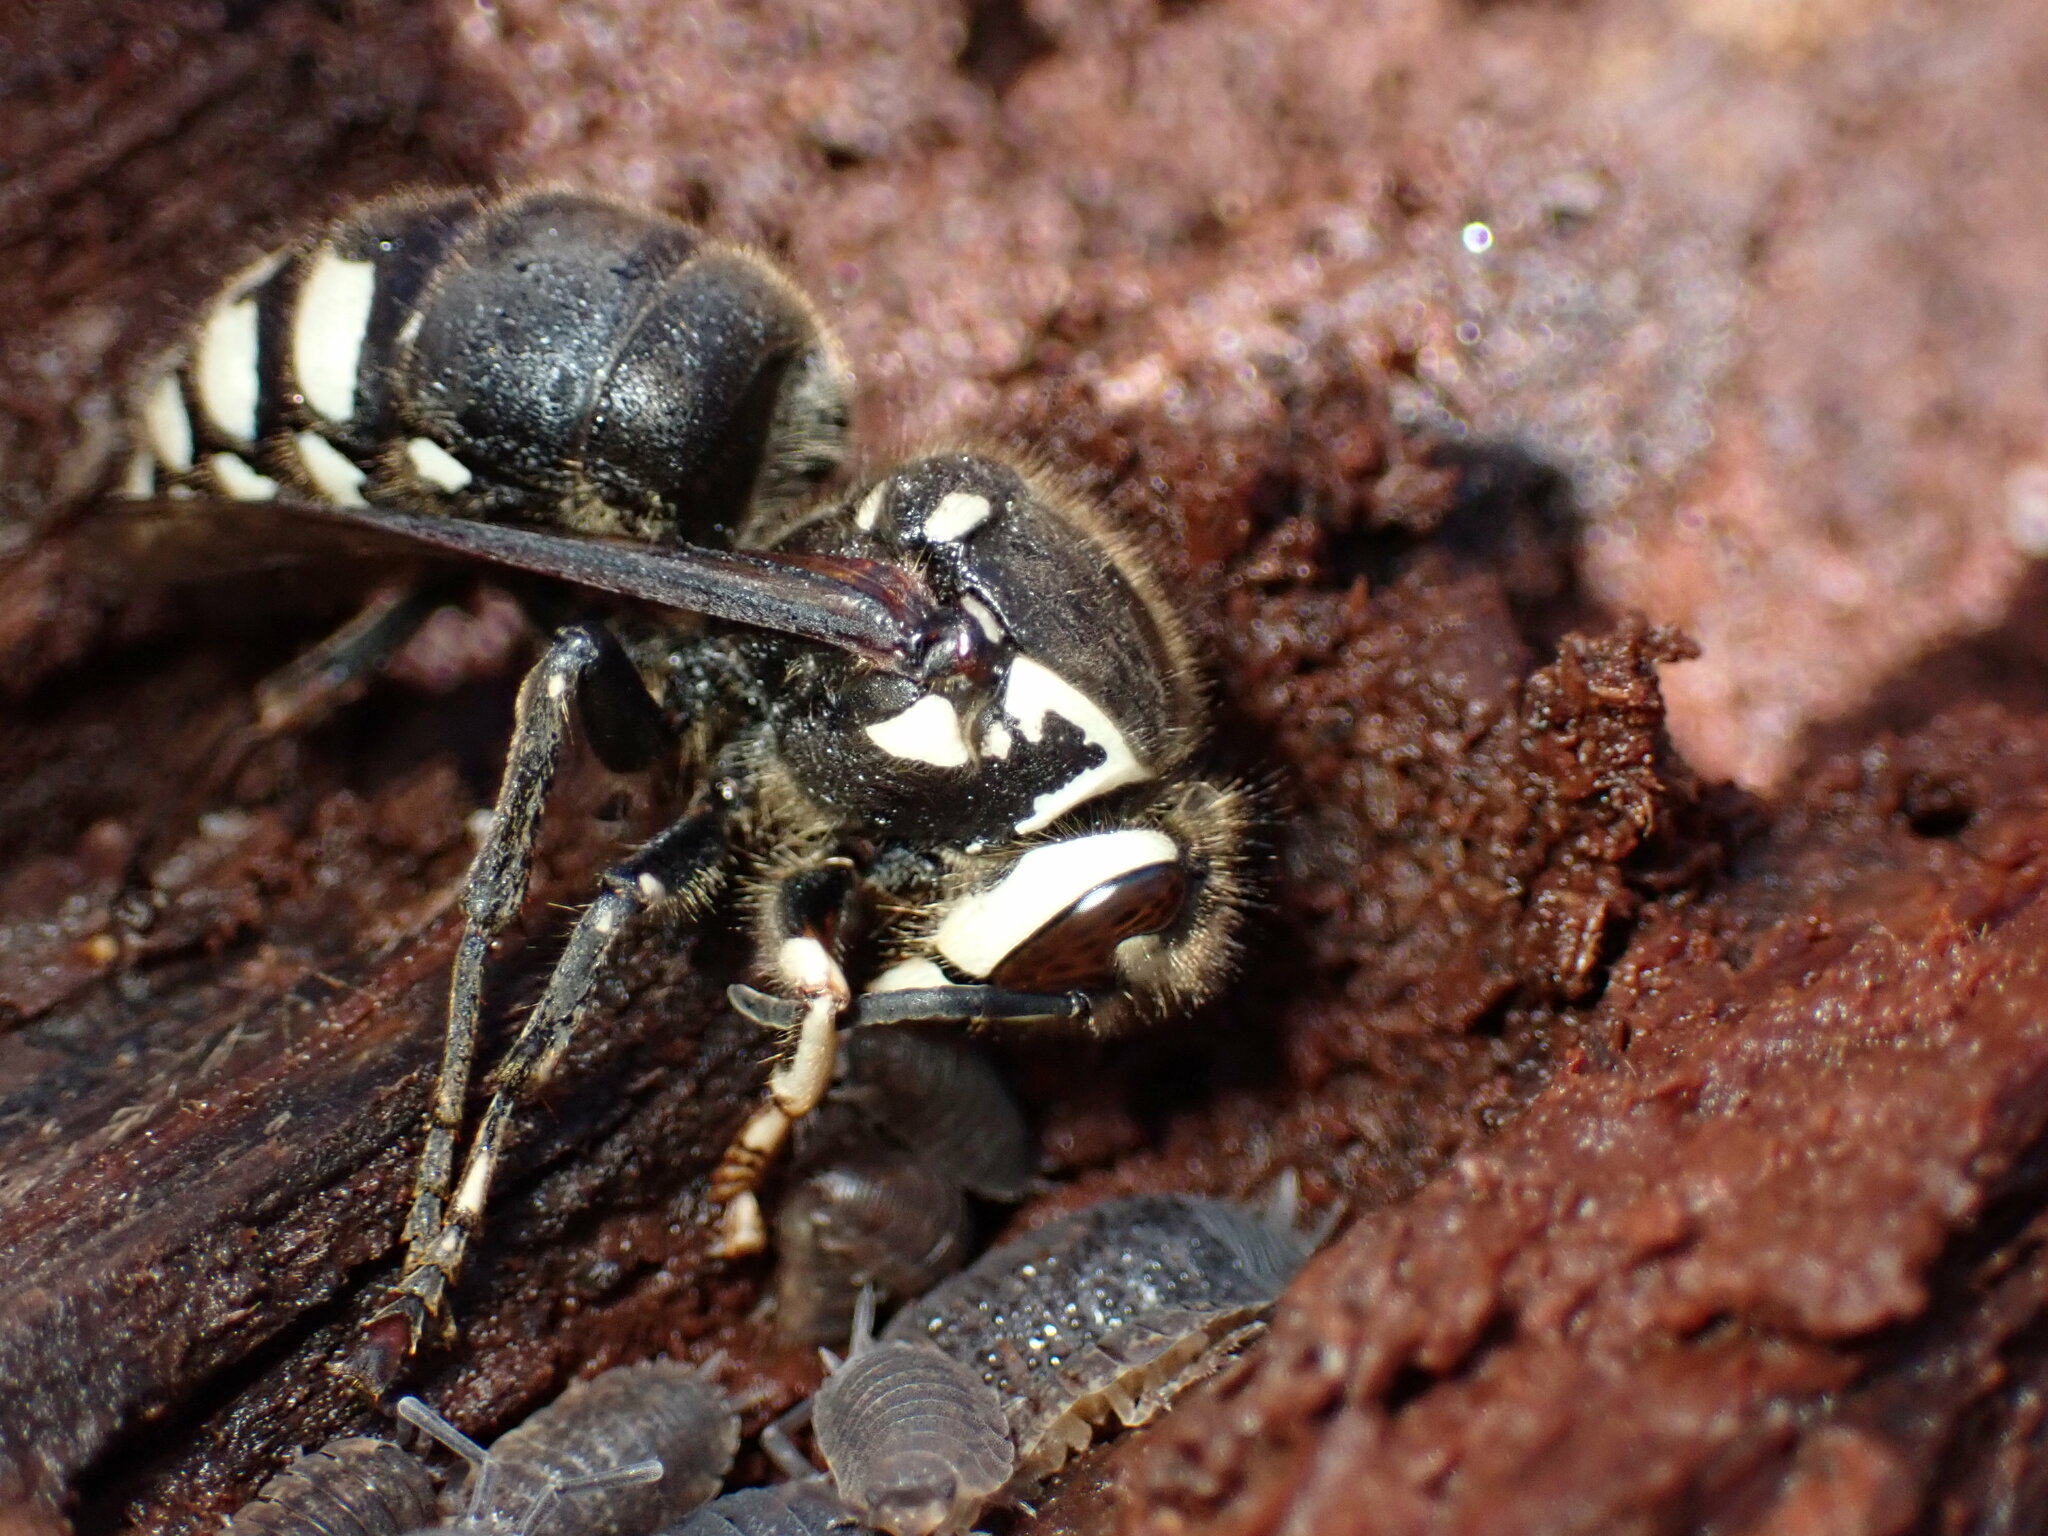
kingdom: Animalia
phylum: Arthropoda
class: Insecta
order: Hymenoptera
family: Vespidae
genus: Dolichovespula
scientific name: Dolichovespula maculata
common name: Bald-faced hornet
